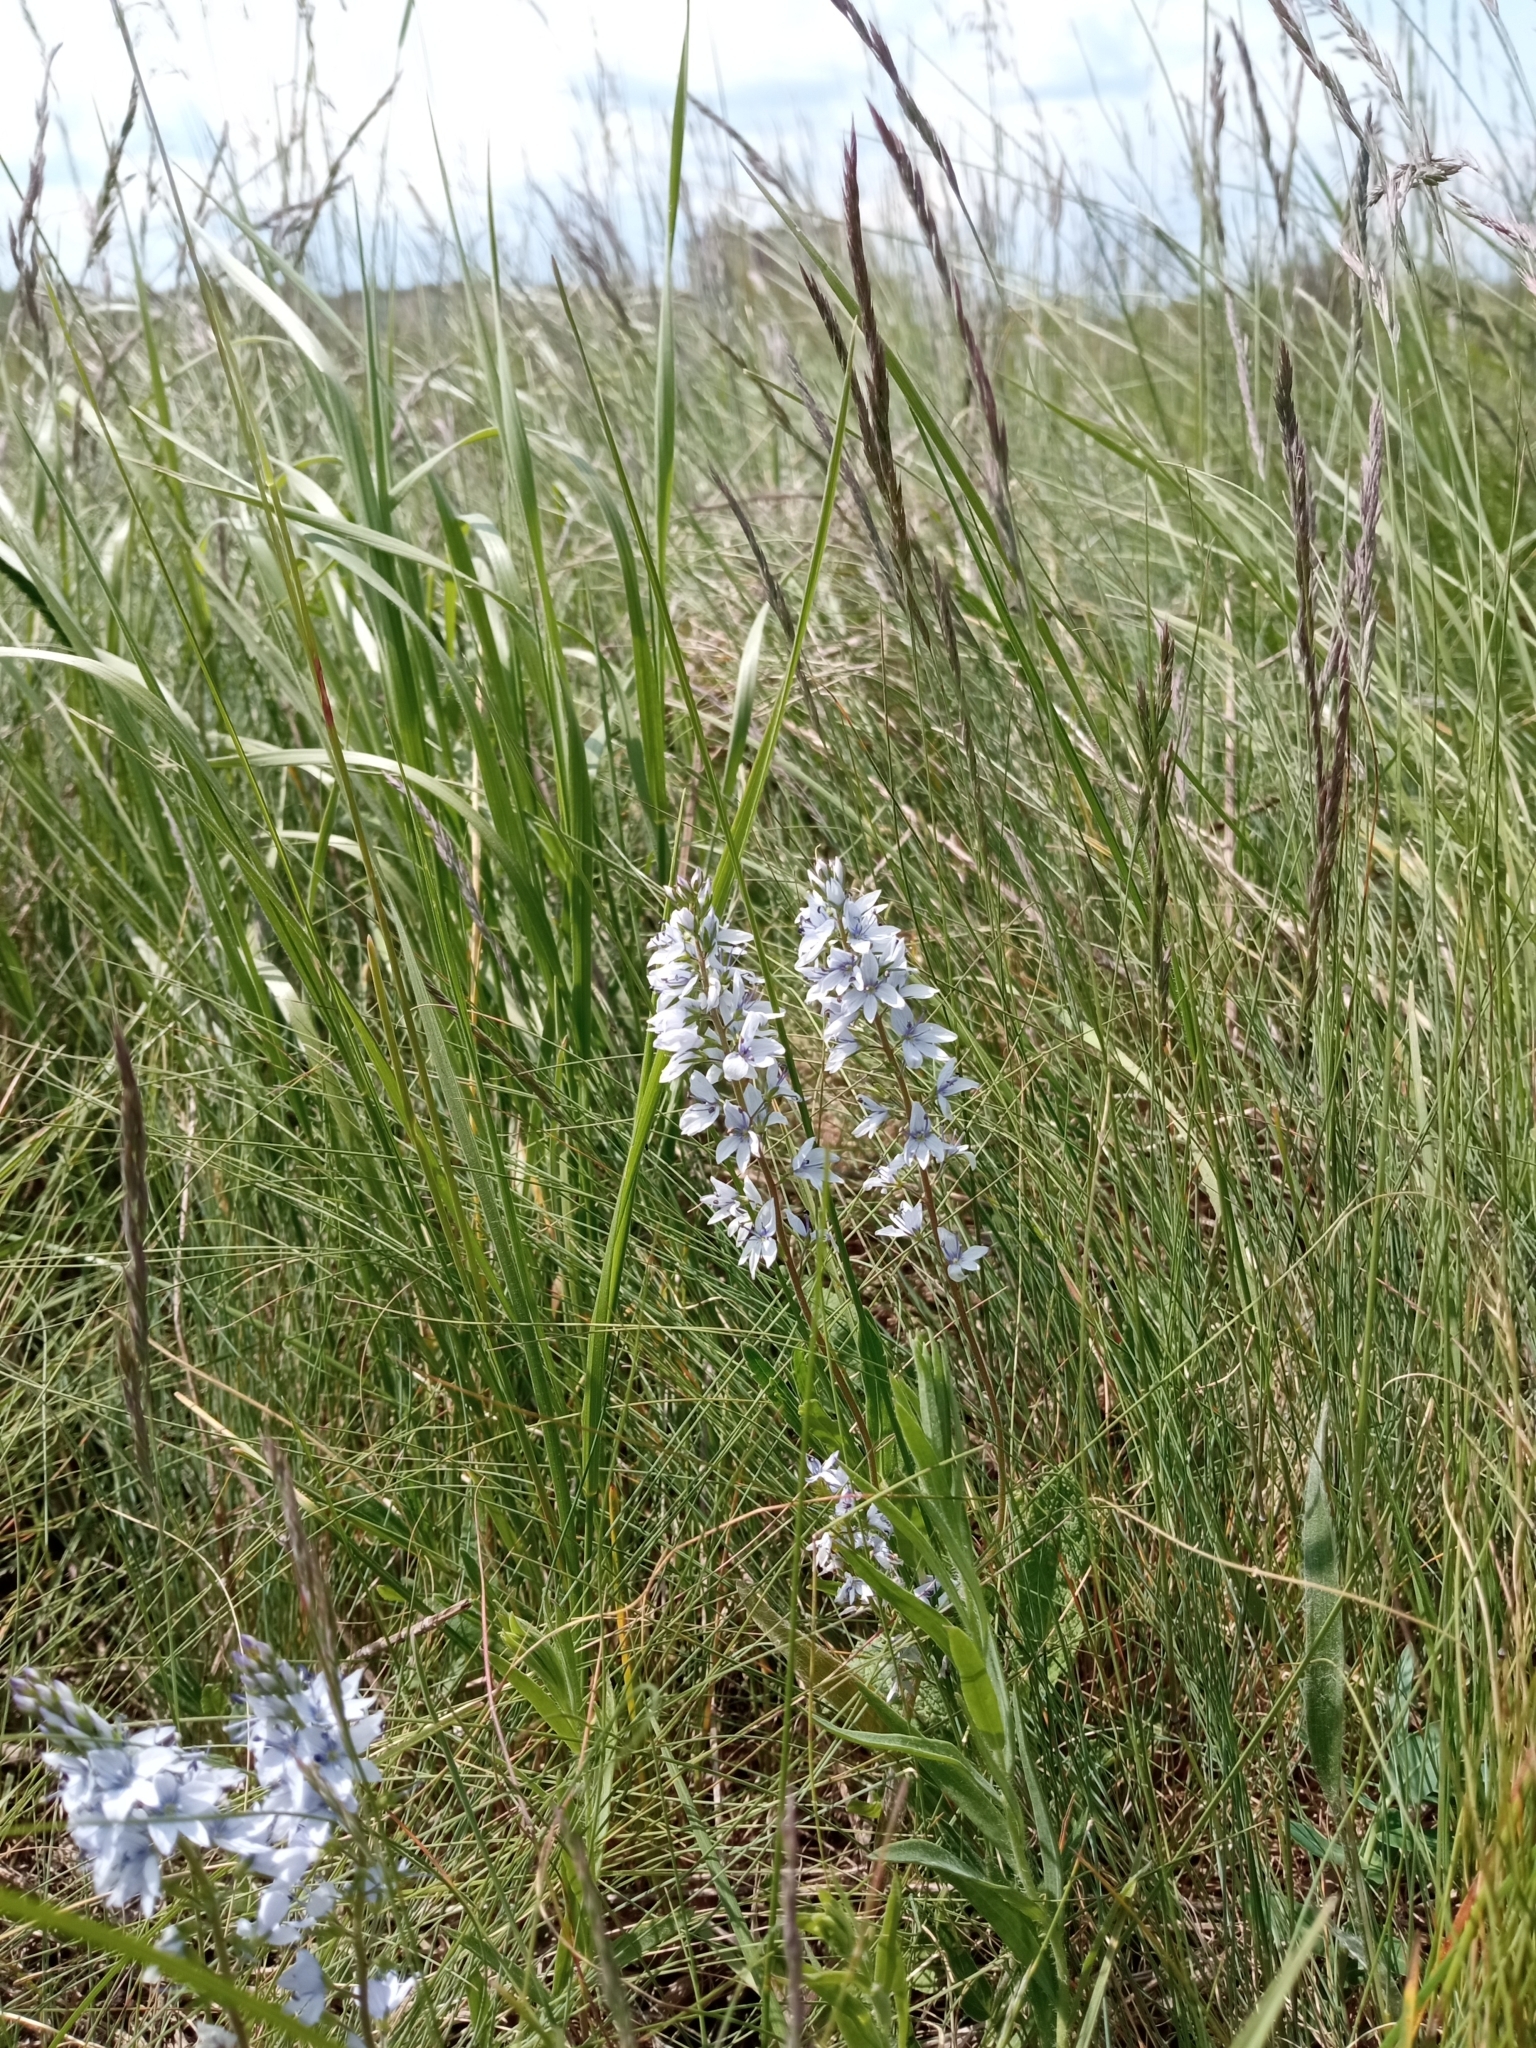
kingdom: Plantae
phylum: Tracheophyta
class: Magnoliopsida
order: Lamiales
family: Plantaginaceae
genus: Veronica
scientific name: Veronica prostrata
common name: Prostrate speedwell
